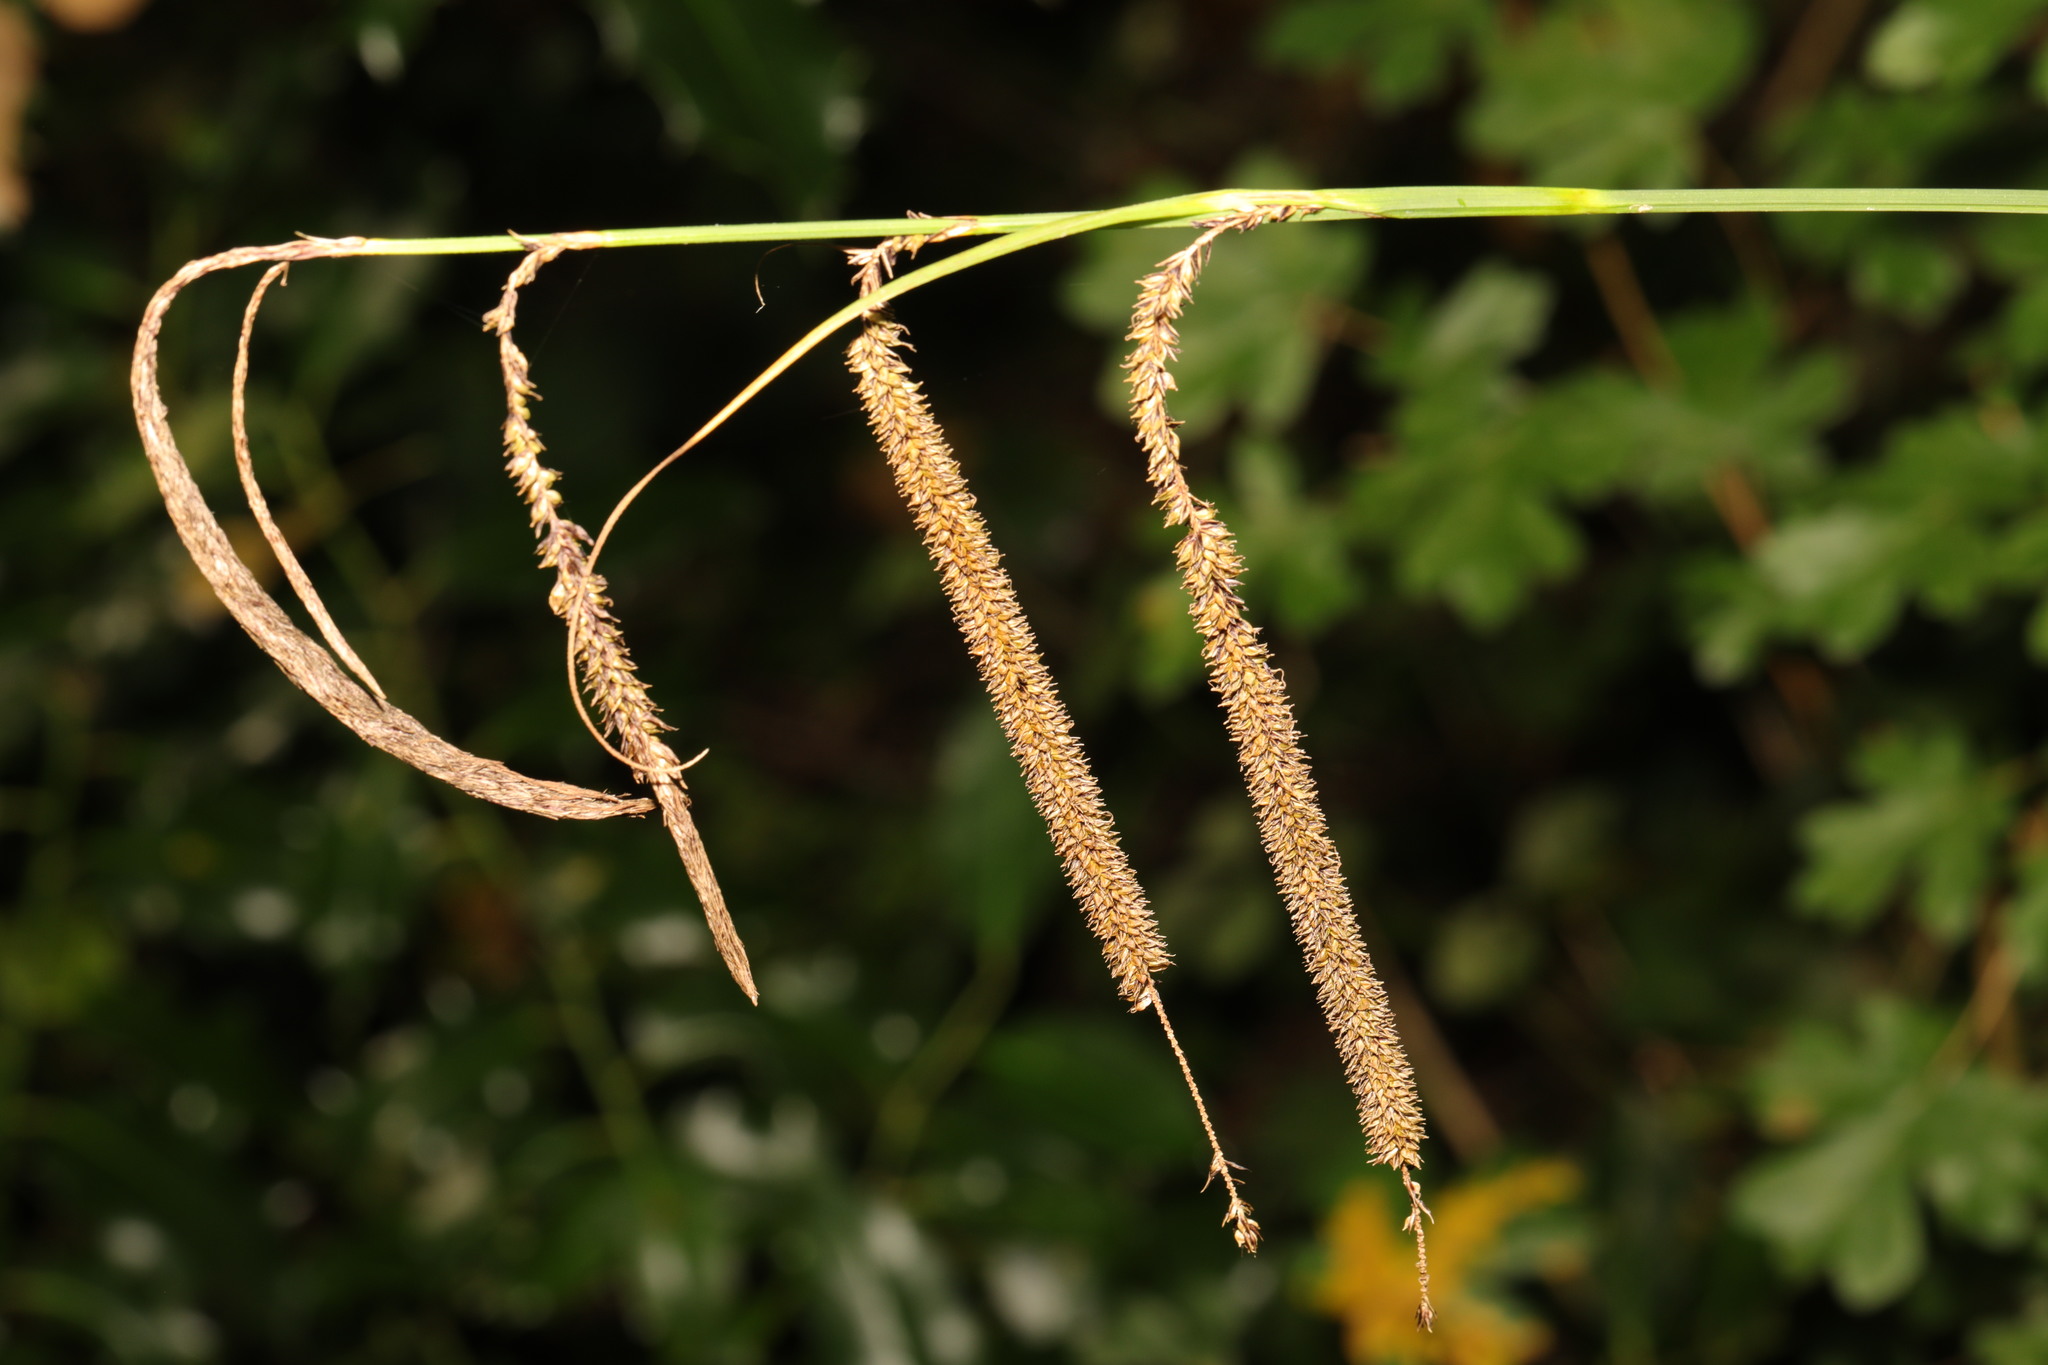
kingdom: Plantae
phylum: Tracheophyta
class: Liliopsida
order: Poales
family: Cyperaceae
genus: Carex
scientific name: Carex pendula
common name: Pendulous sedge
